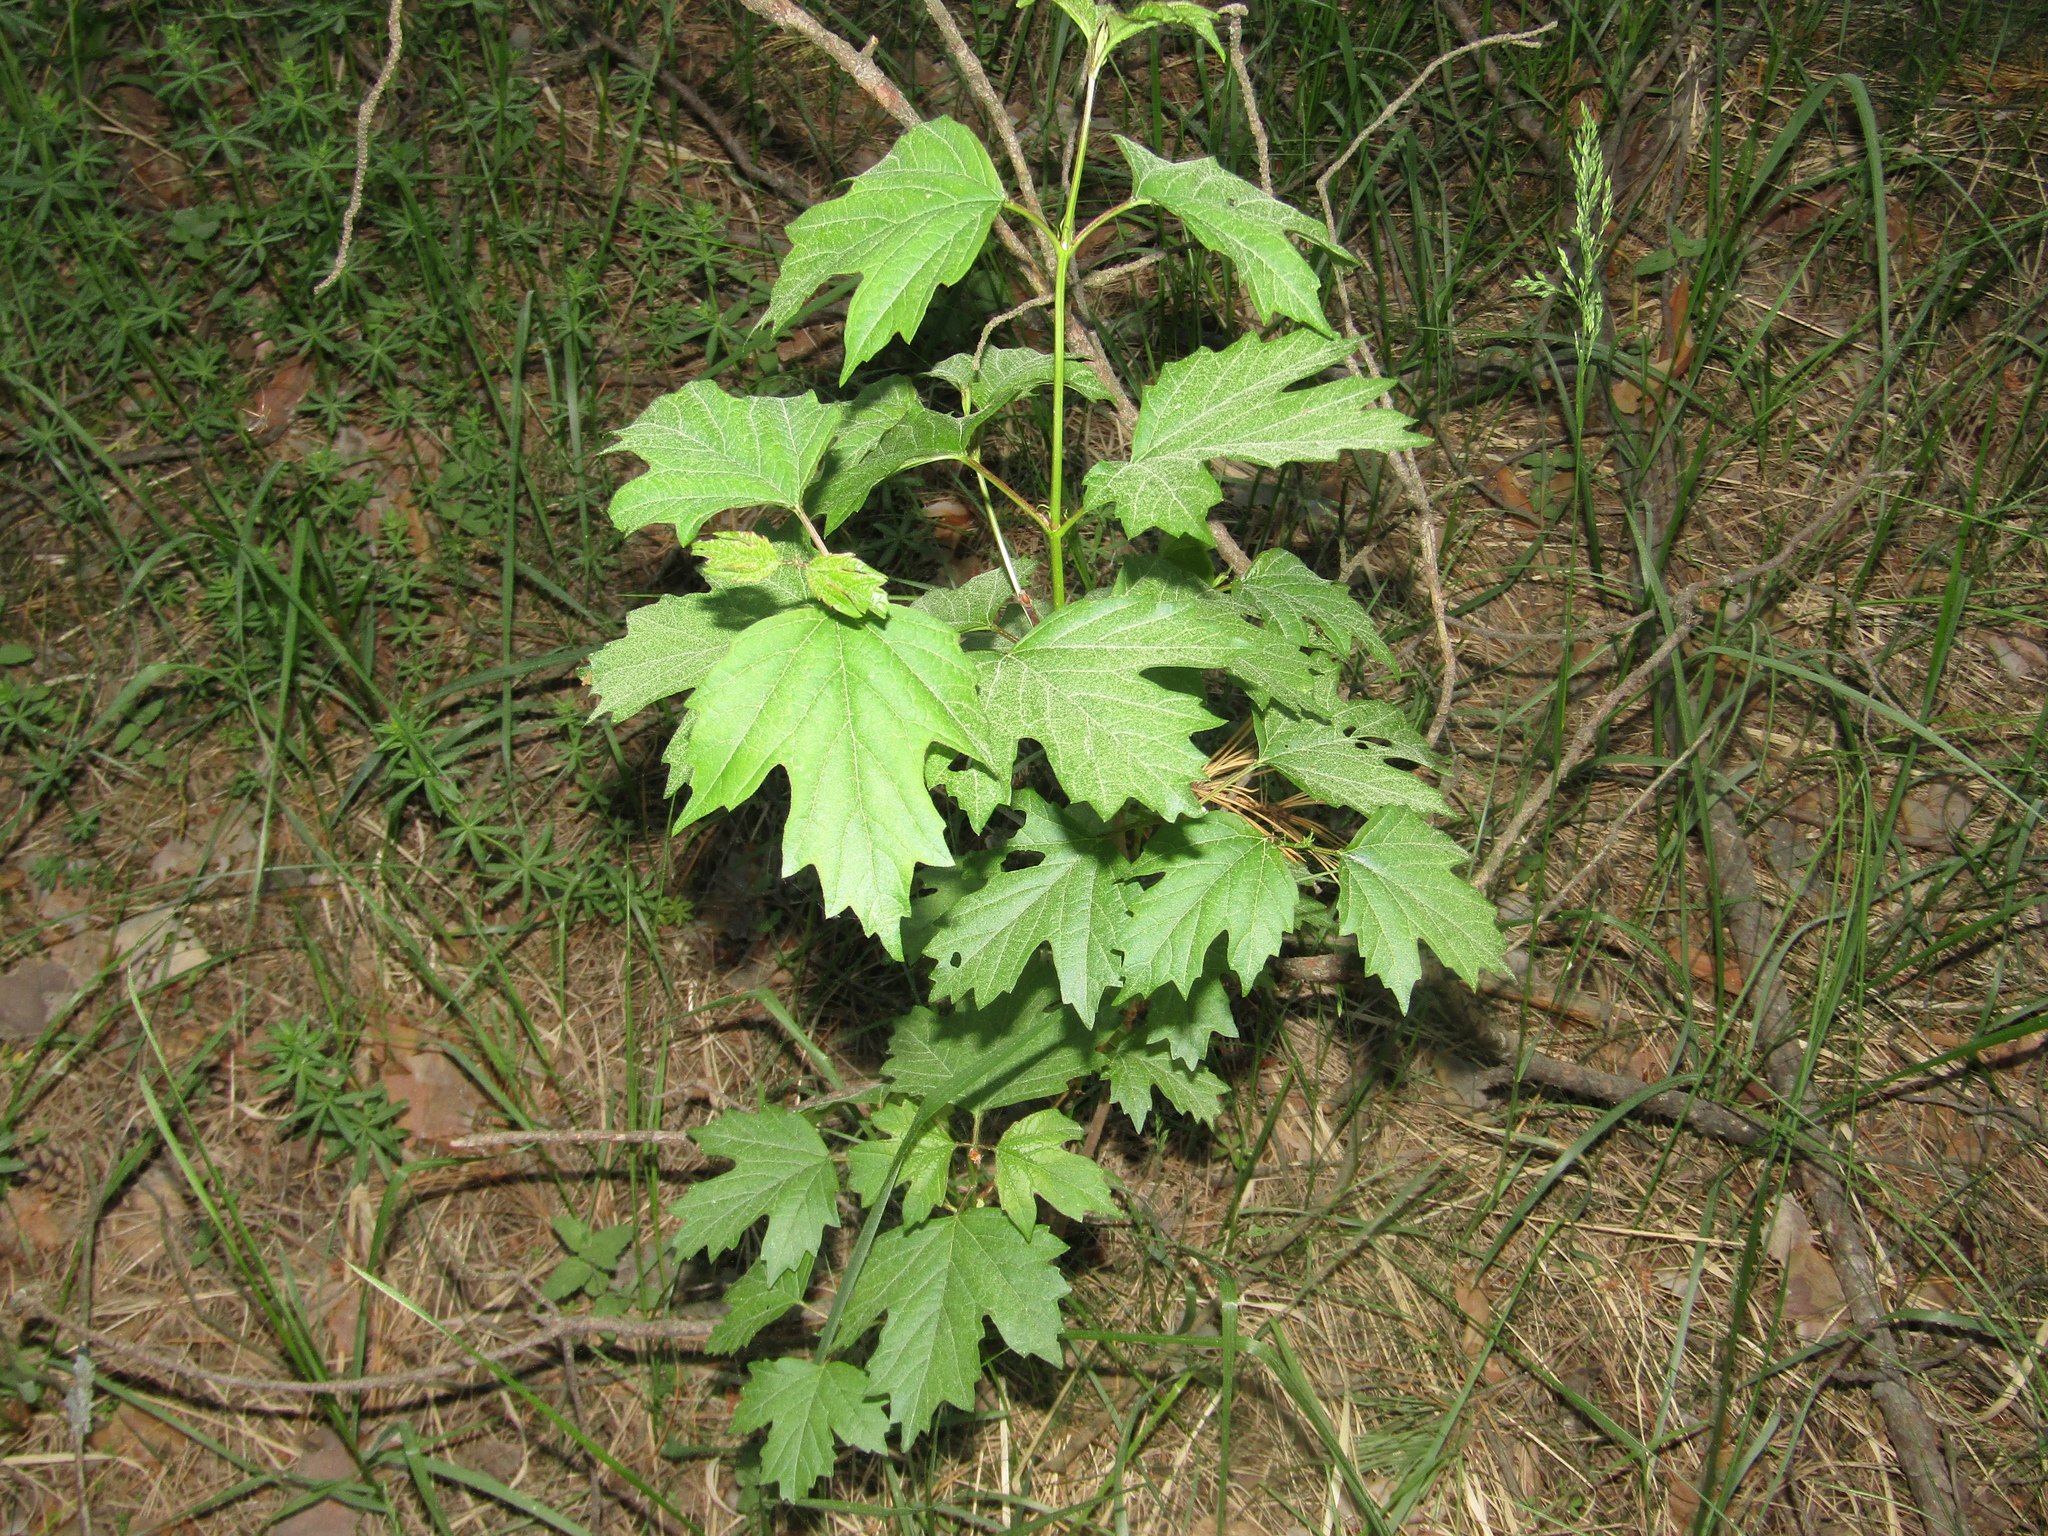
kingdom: Plantae
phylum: Tracheophyta
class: Magnoliopsida
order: Dipsacales
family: Viburnaceae
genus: Viburnum
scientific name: Viburnum opulus
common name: Guelder-rose
